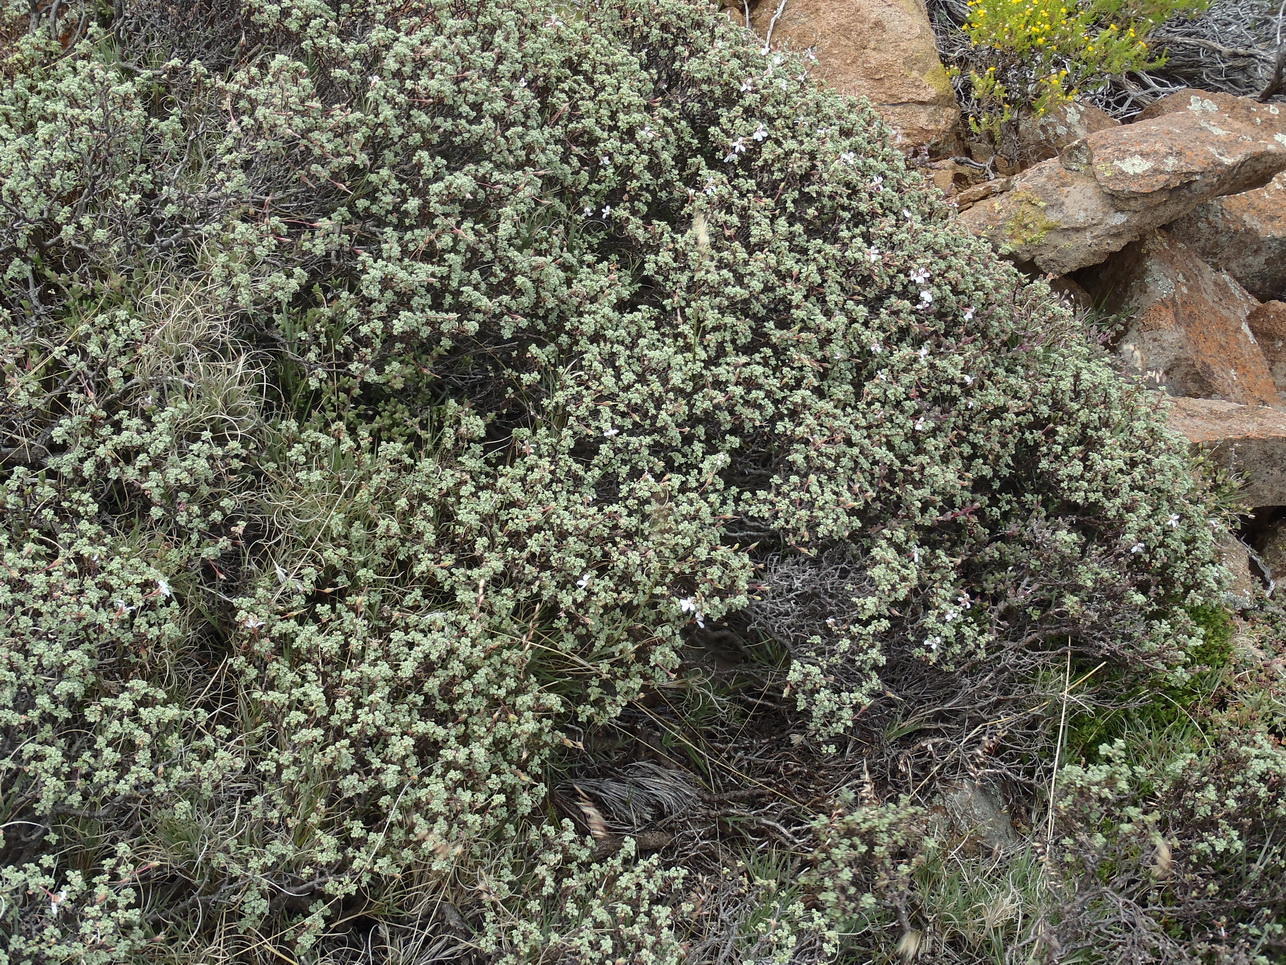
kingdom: Plantae
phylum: Tracheophyta
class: Magnoliopsida
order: Geraniales
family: Geraniaceae
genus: Pelargonium
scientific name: Pelargonium abrotanifolium
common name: Southernwood geranium
